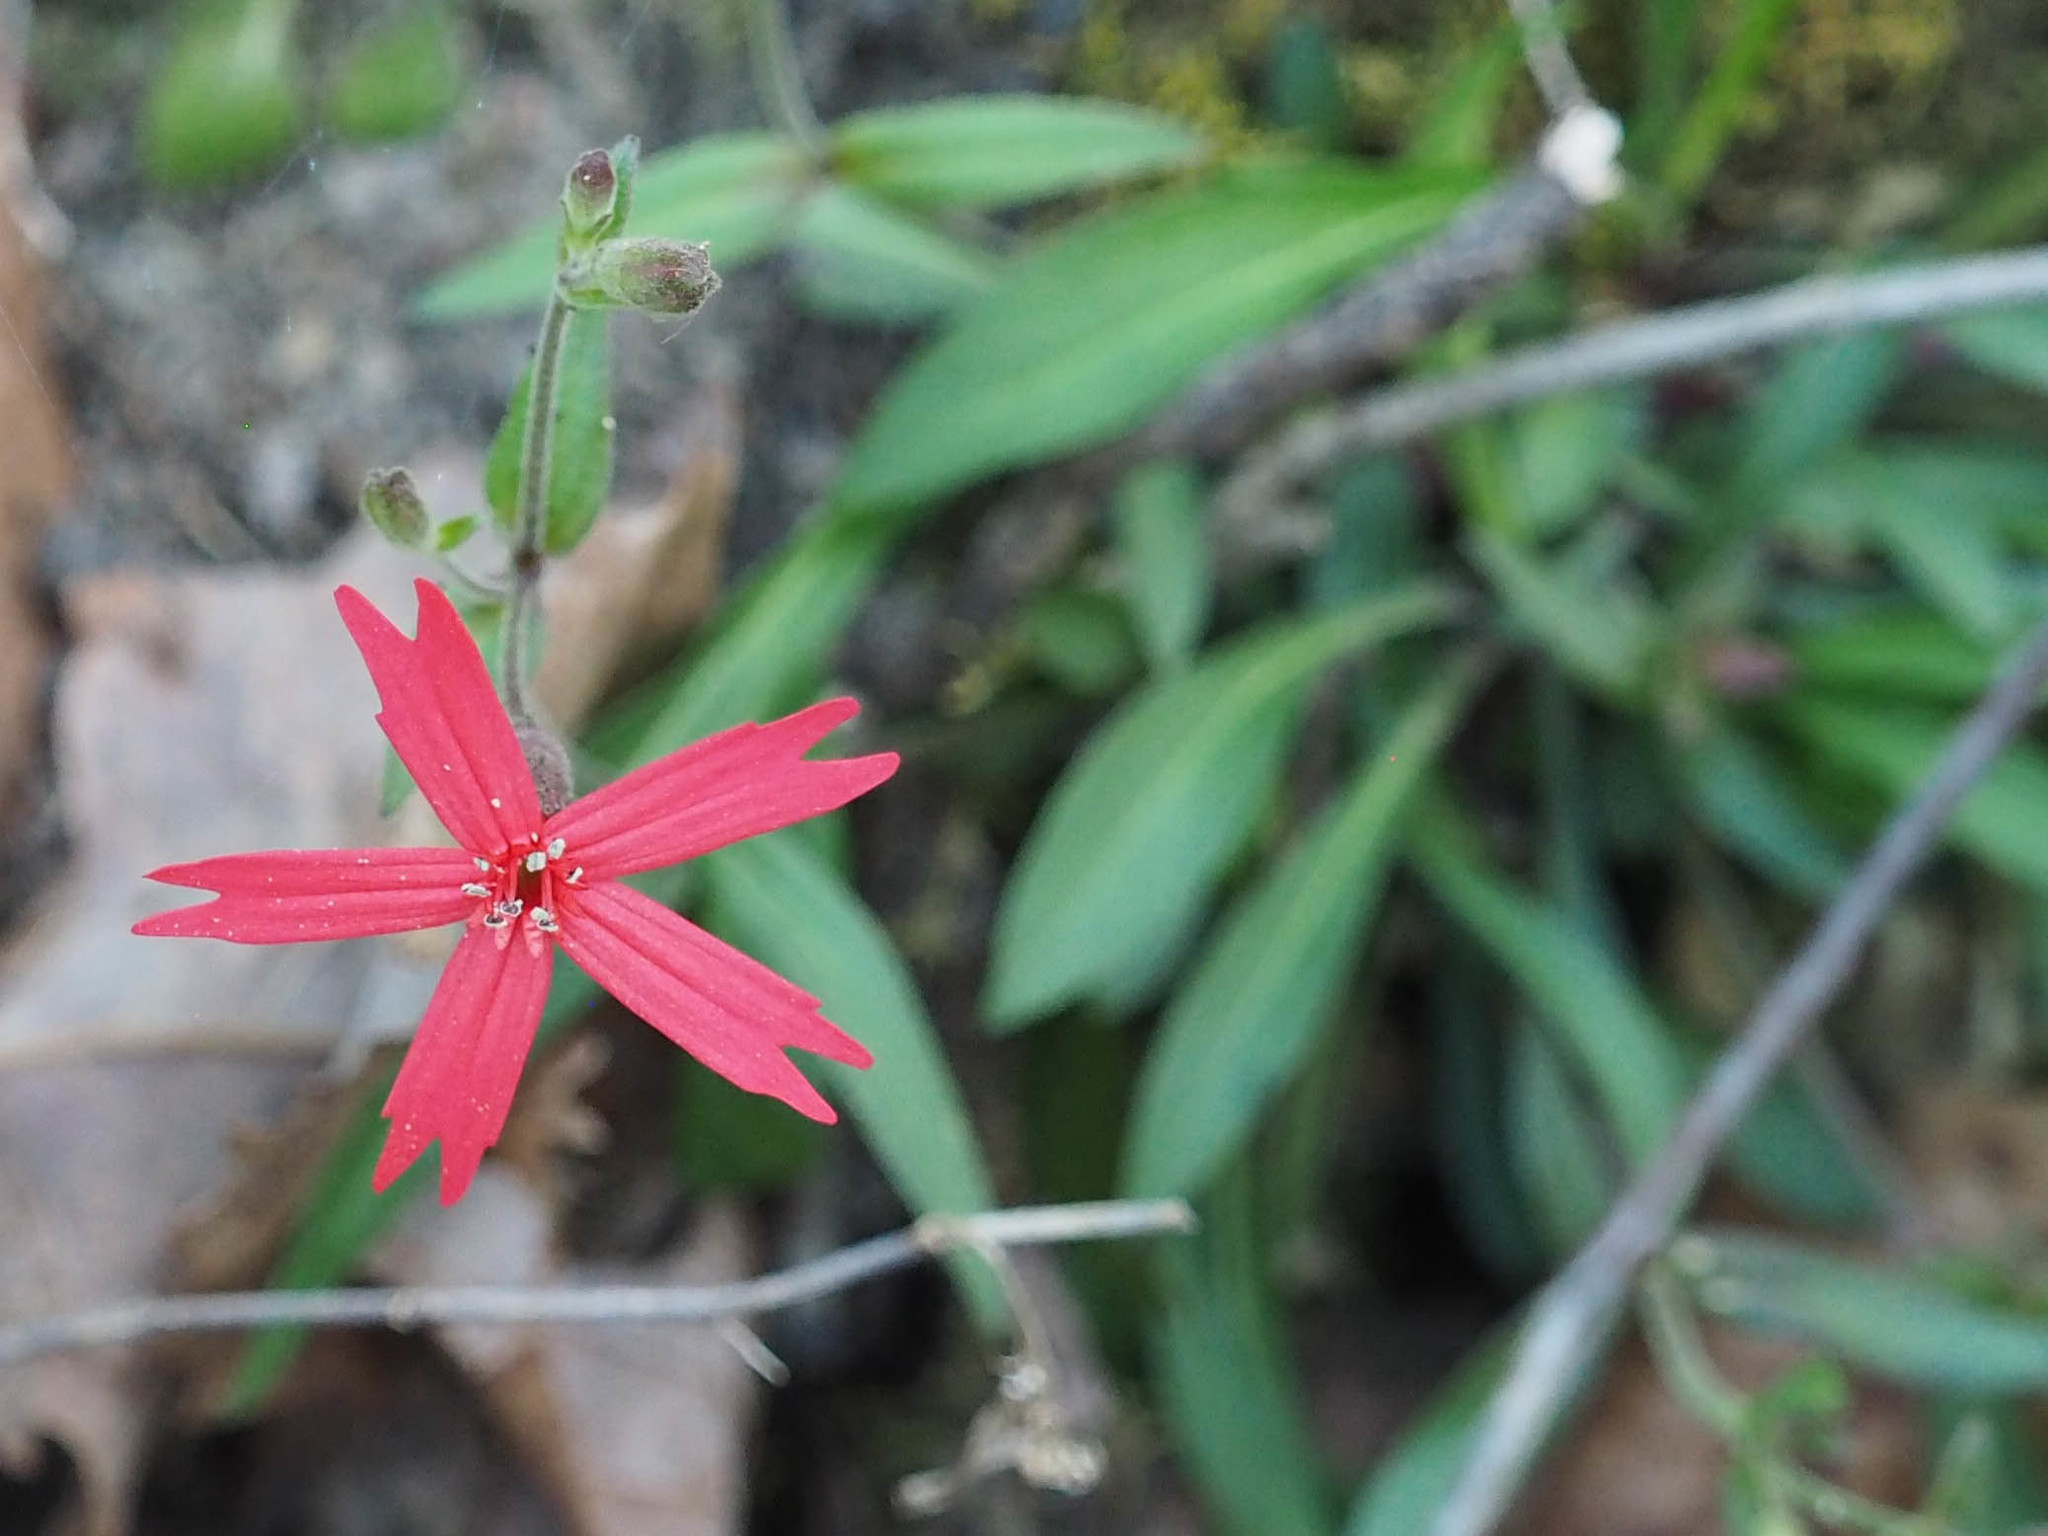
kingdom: Plantae
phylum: Tracheophyta
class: Magnoliopsida
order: Caryophyllales
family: Caryophyllaceae
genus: Silene
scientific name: Silene virginica
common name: Fire-pink
